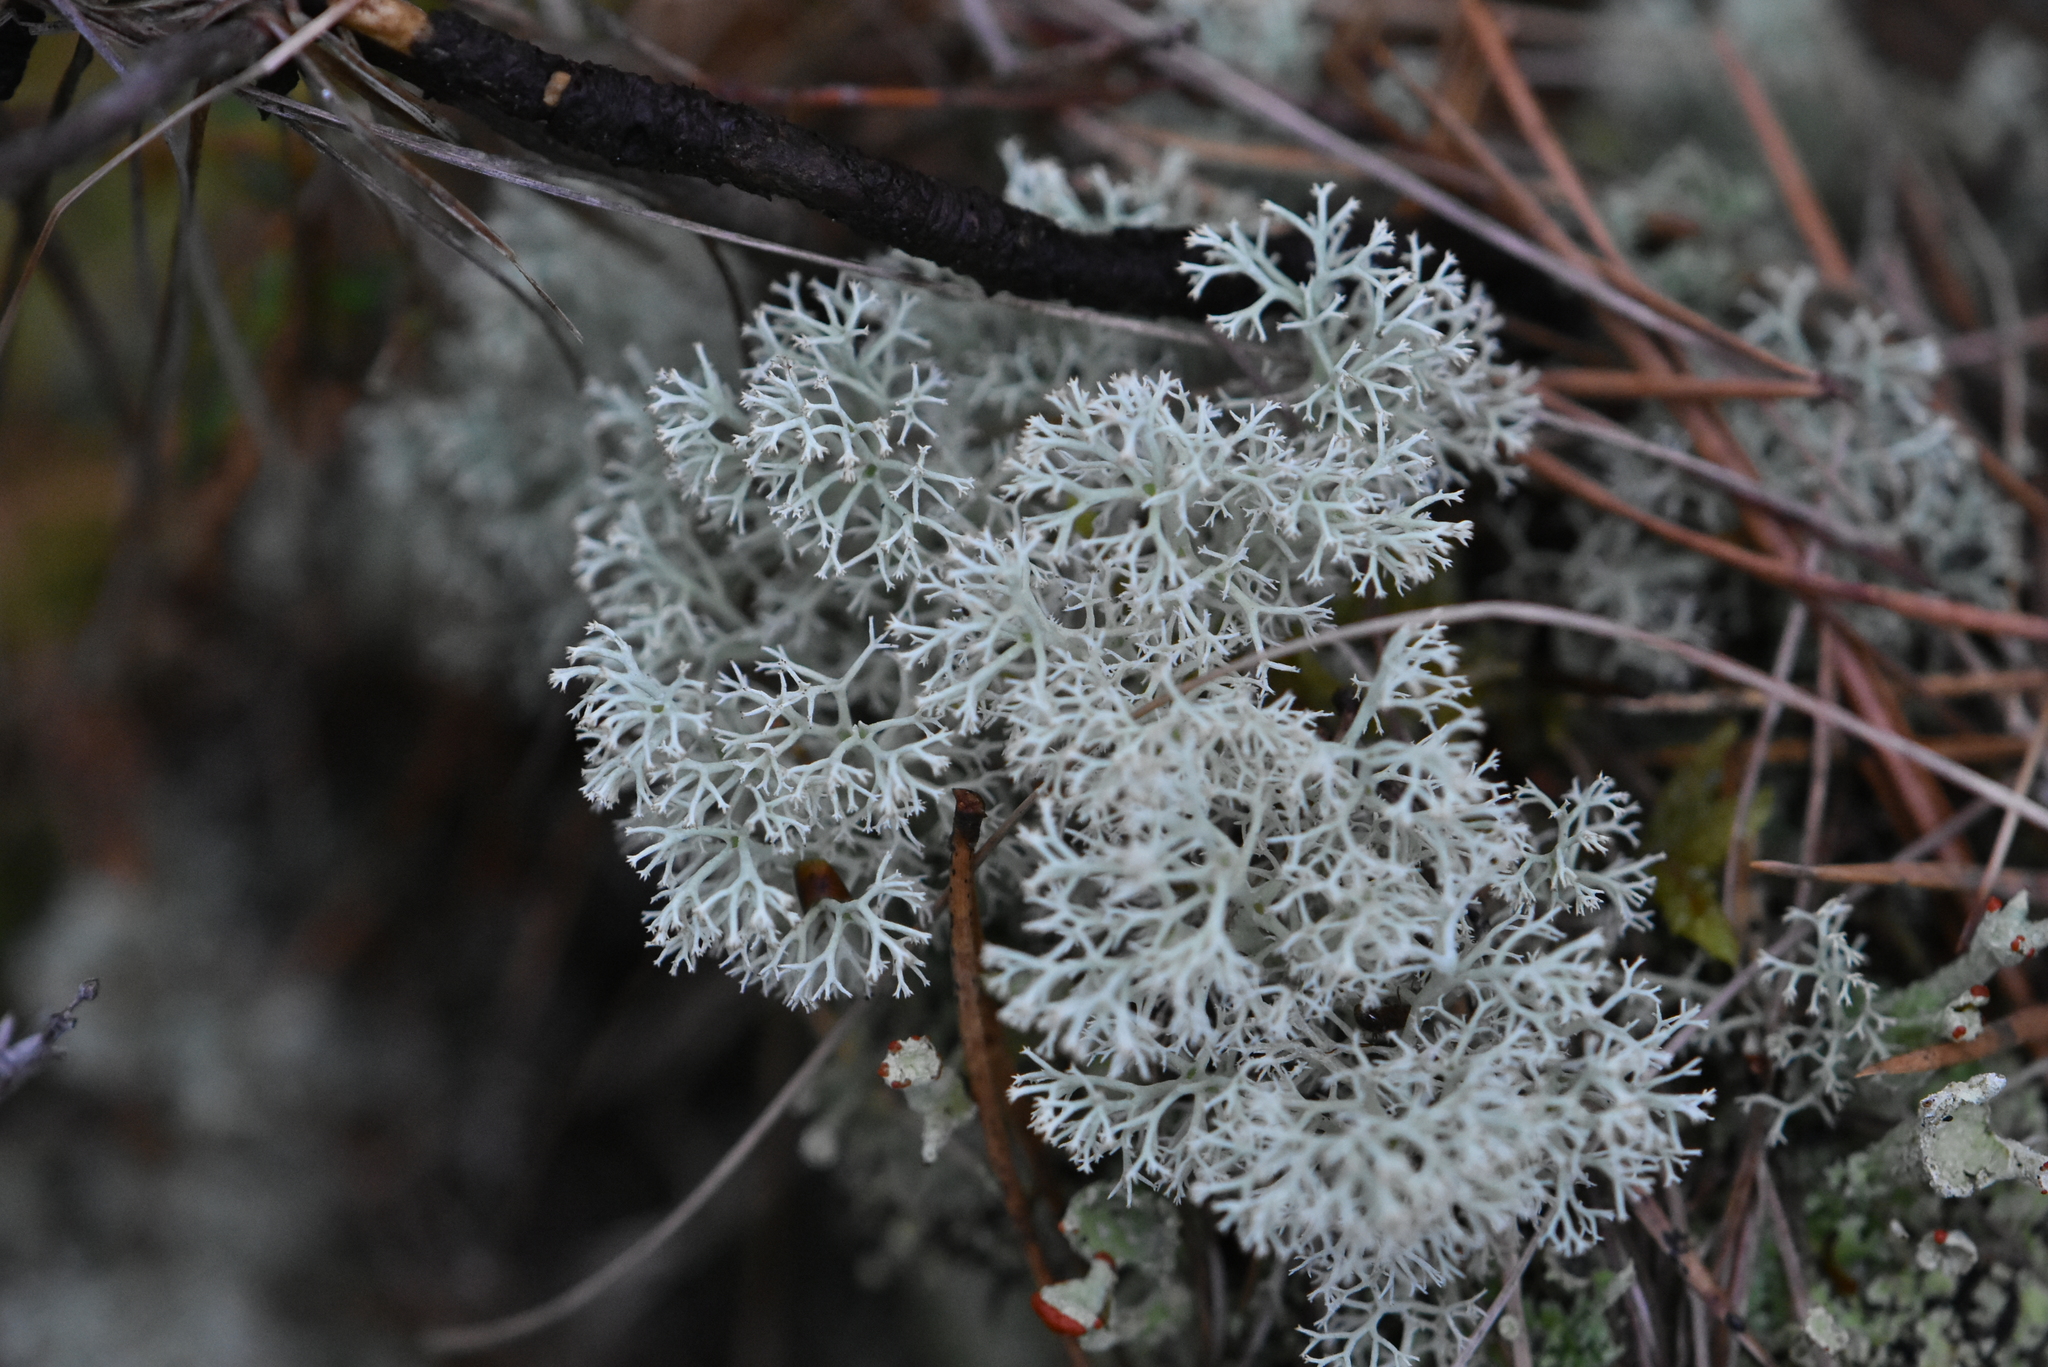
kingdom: Fungi
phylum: Ascomycota
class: Lecanoromycetes
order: Lecanorales
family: Cladoniaceae
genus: Cladonia
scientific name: Cladonia arbuscula
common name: Reindeer lichen
